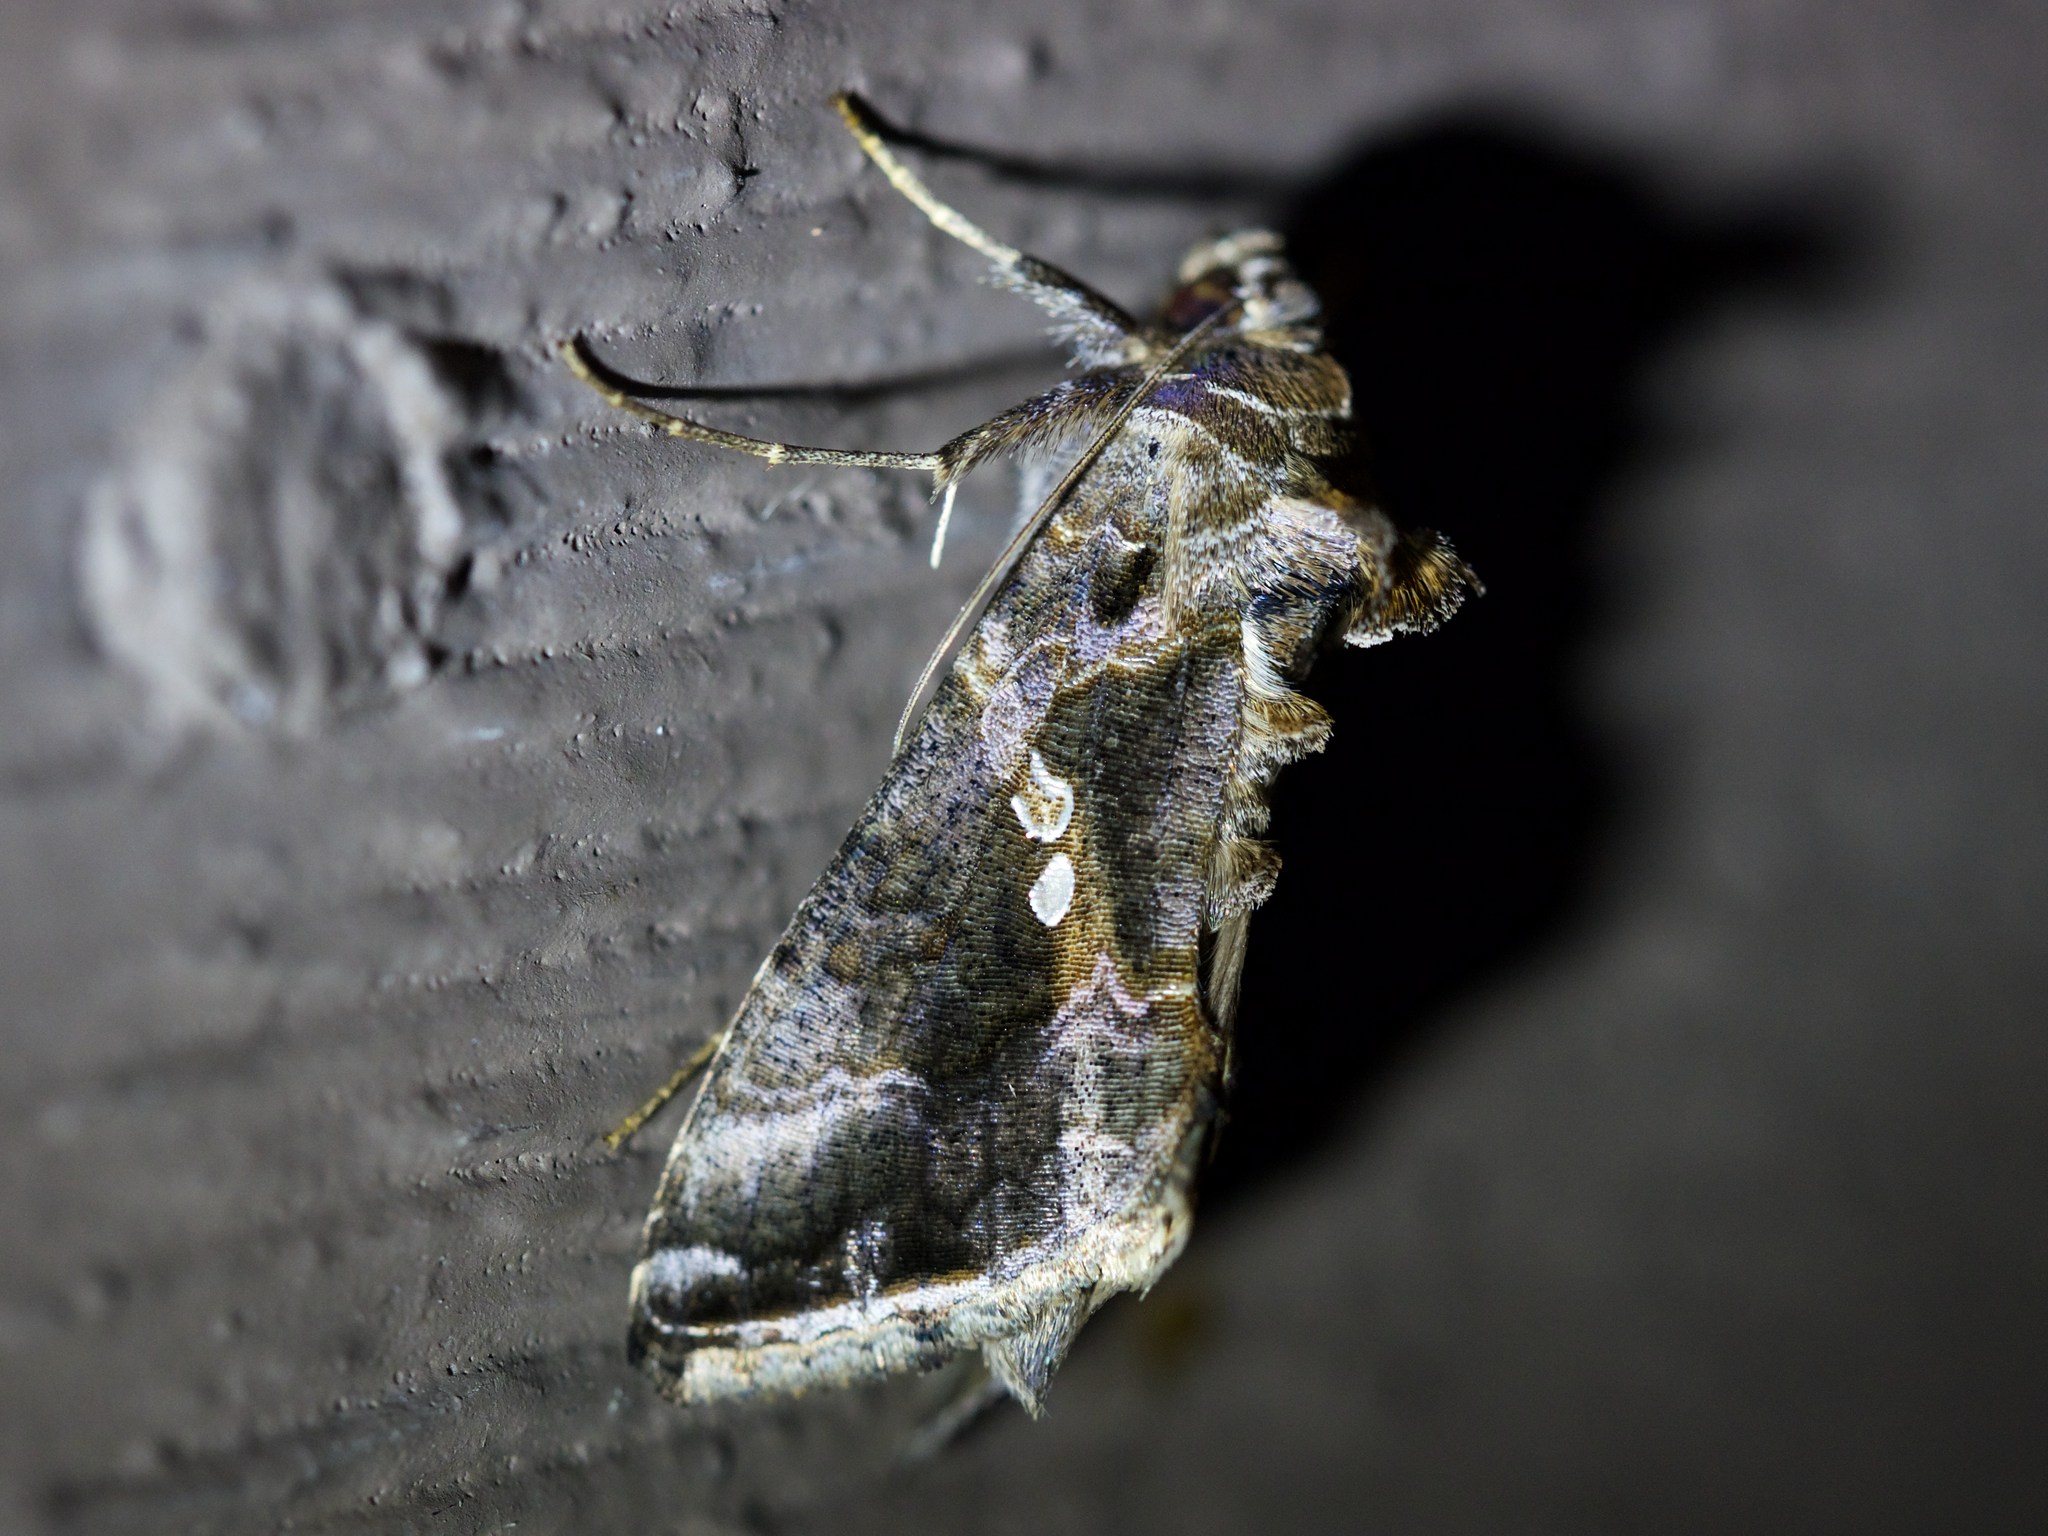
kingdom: Animalia
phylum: Arthropoda
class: Insecta
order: Lepidoptera
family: Noctuidae
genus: Chrysodeixis
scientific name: Chrysodeixis includens
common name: Cutworm moth
